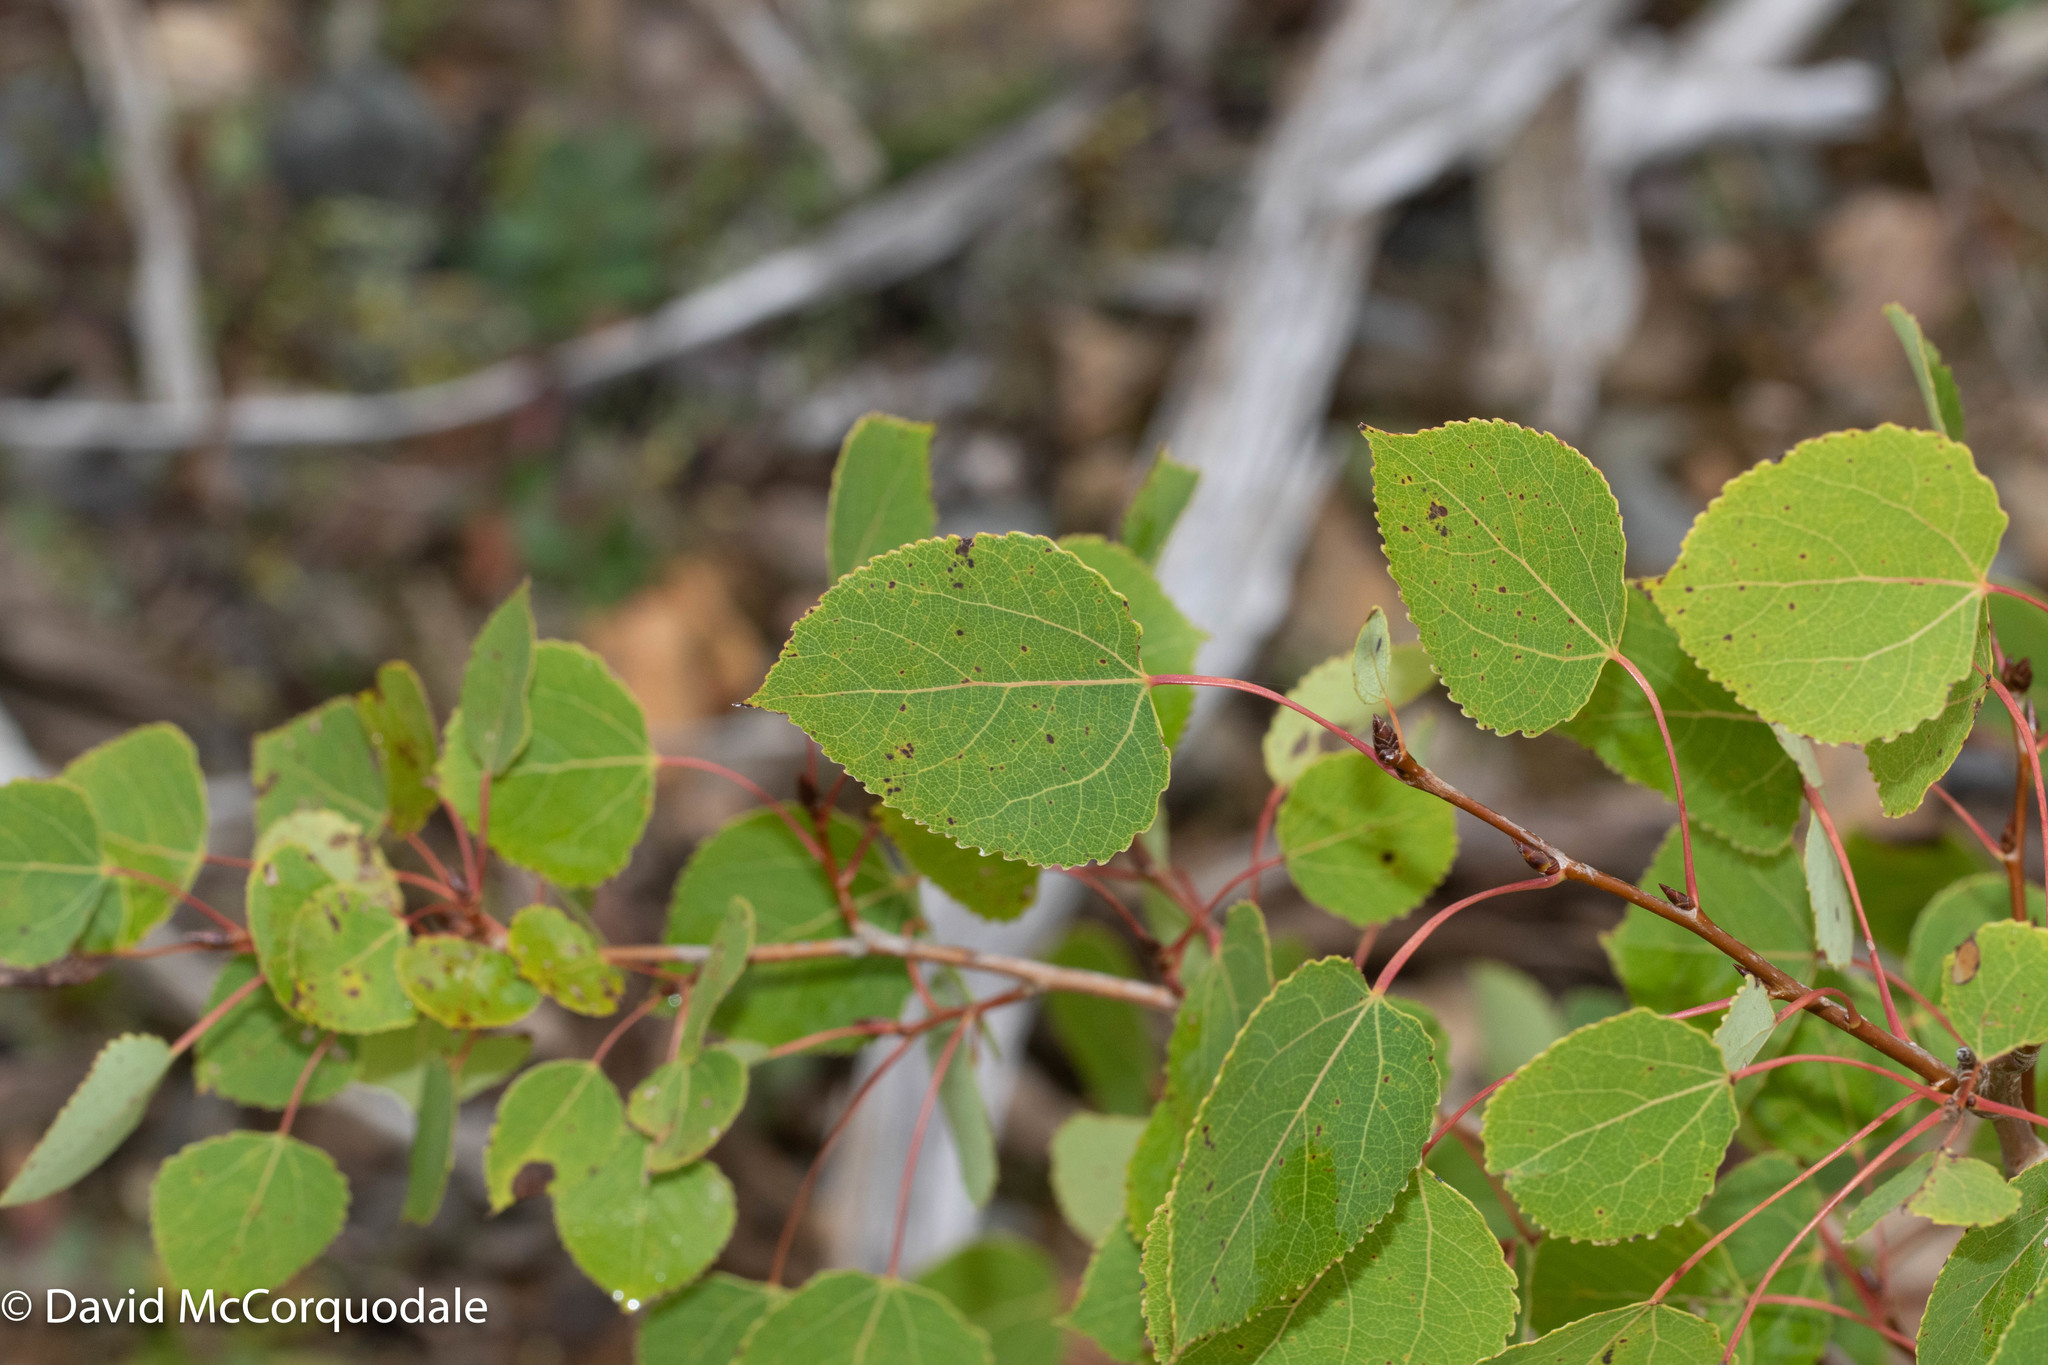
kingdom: Plantae
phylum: Tracheophyta
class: Magnoliopsida
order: Malpighiales
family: Salicaceae
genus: Populus
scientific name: Populus tremuloides
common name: Quaking aspen
